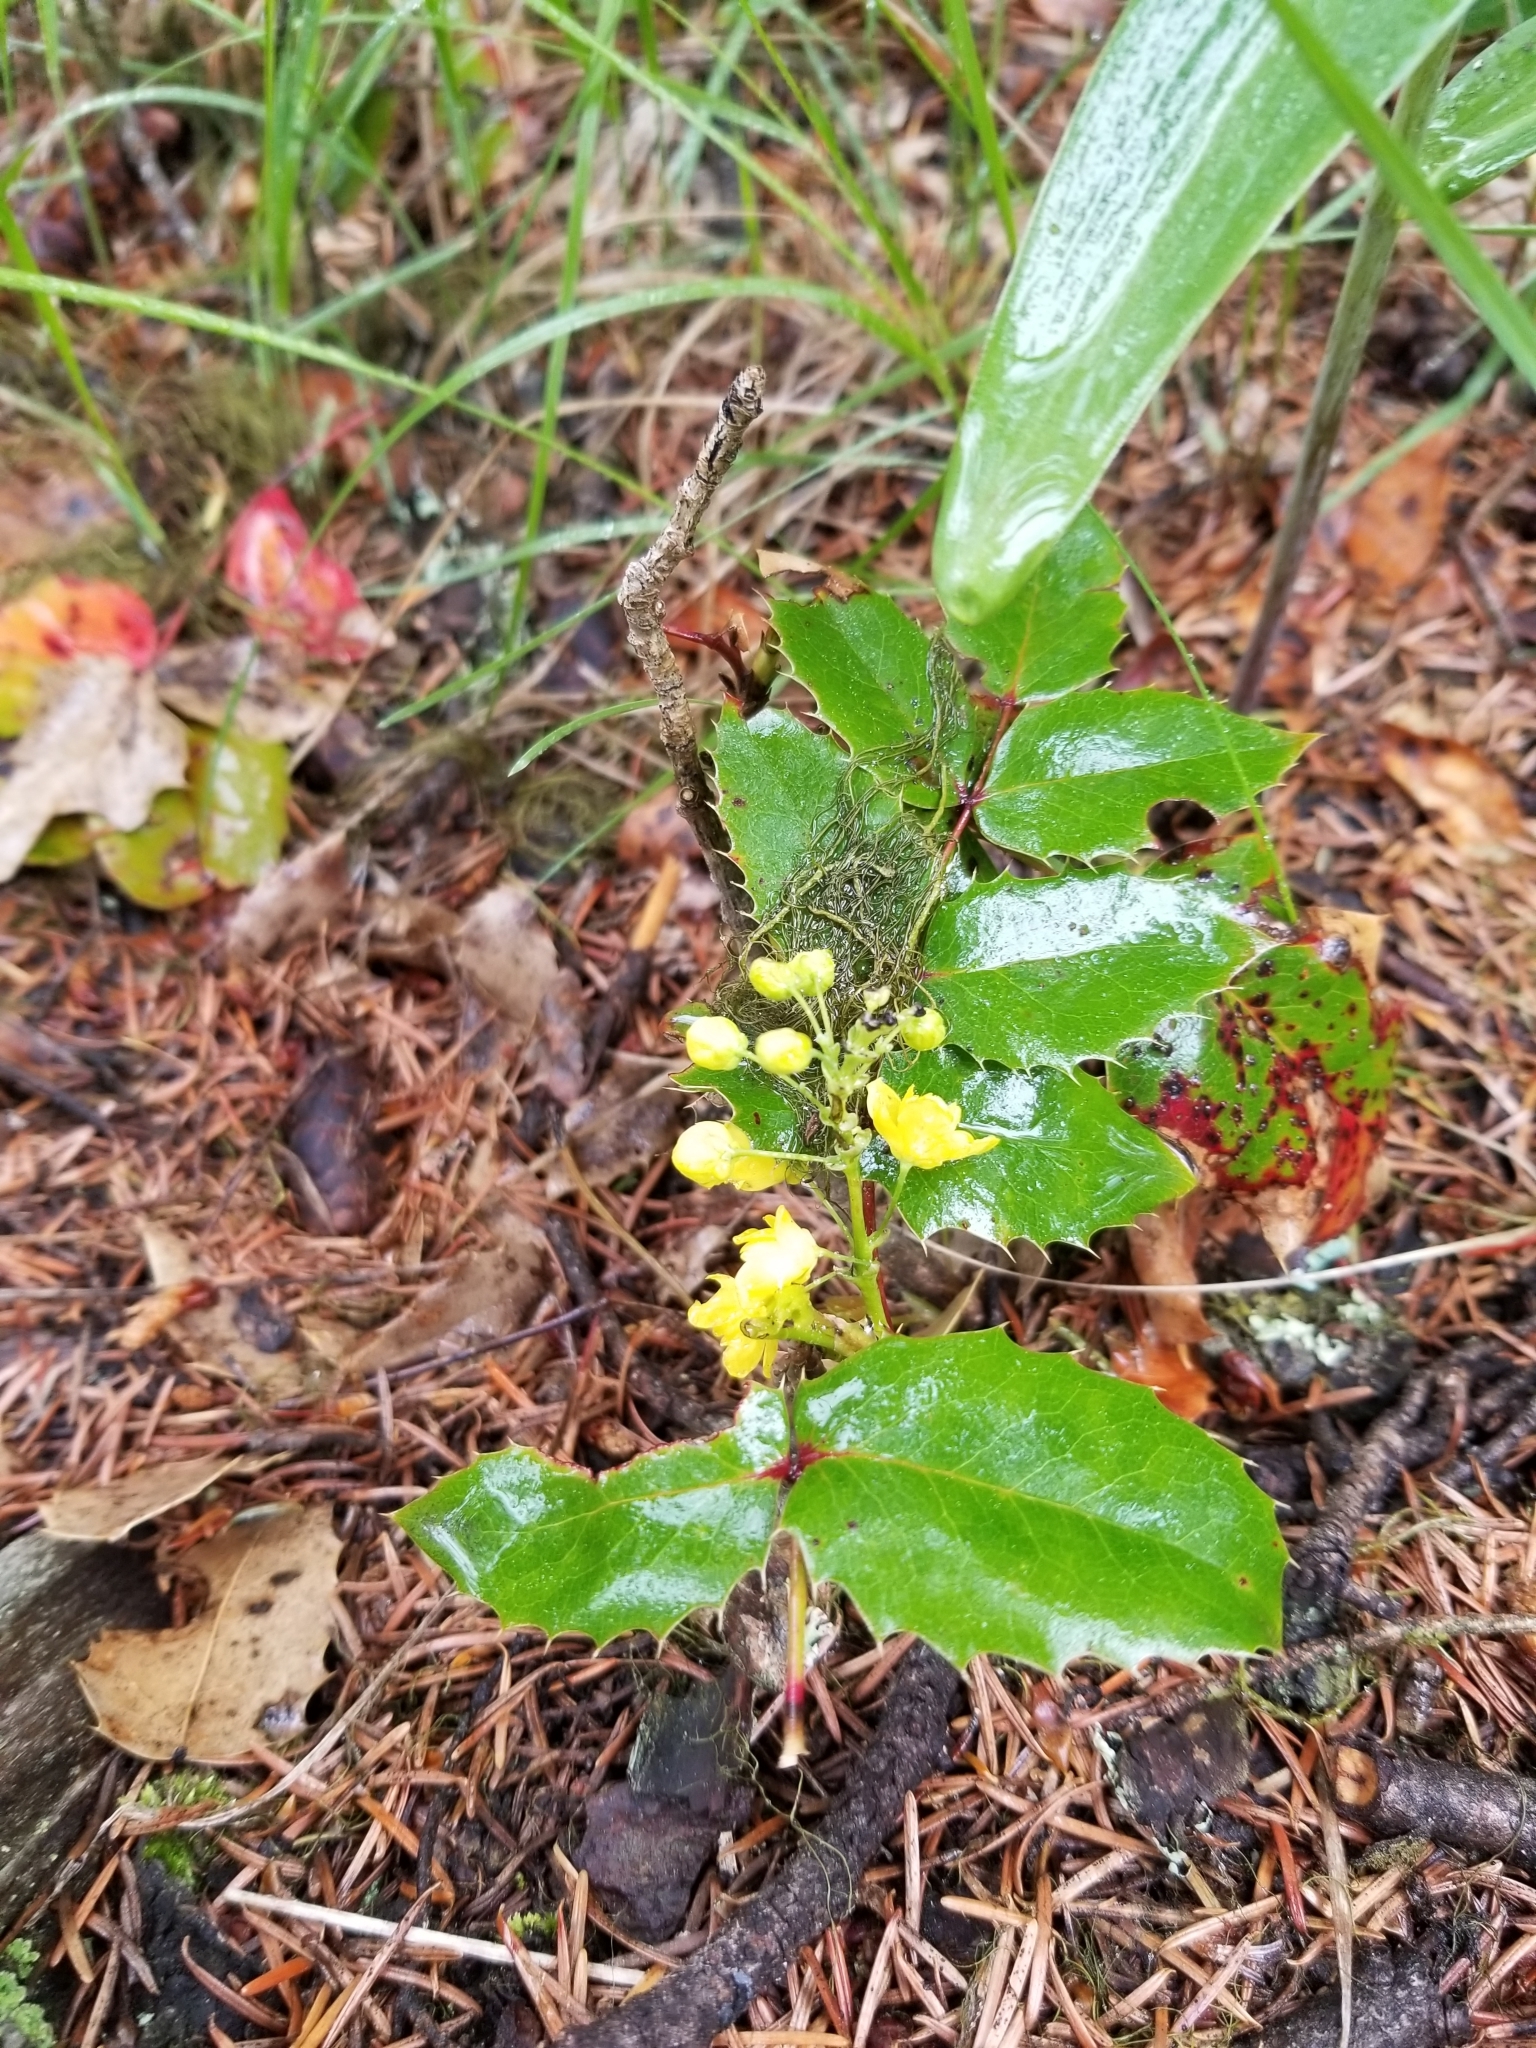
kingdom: Plantae
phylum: Tracheophyta
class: Magnoliopsida
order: Ranunculales
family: Berberidaceae
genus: Mahonia
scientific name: Mahonia aquifolium
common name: Oregon-grape
